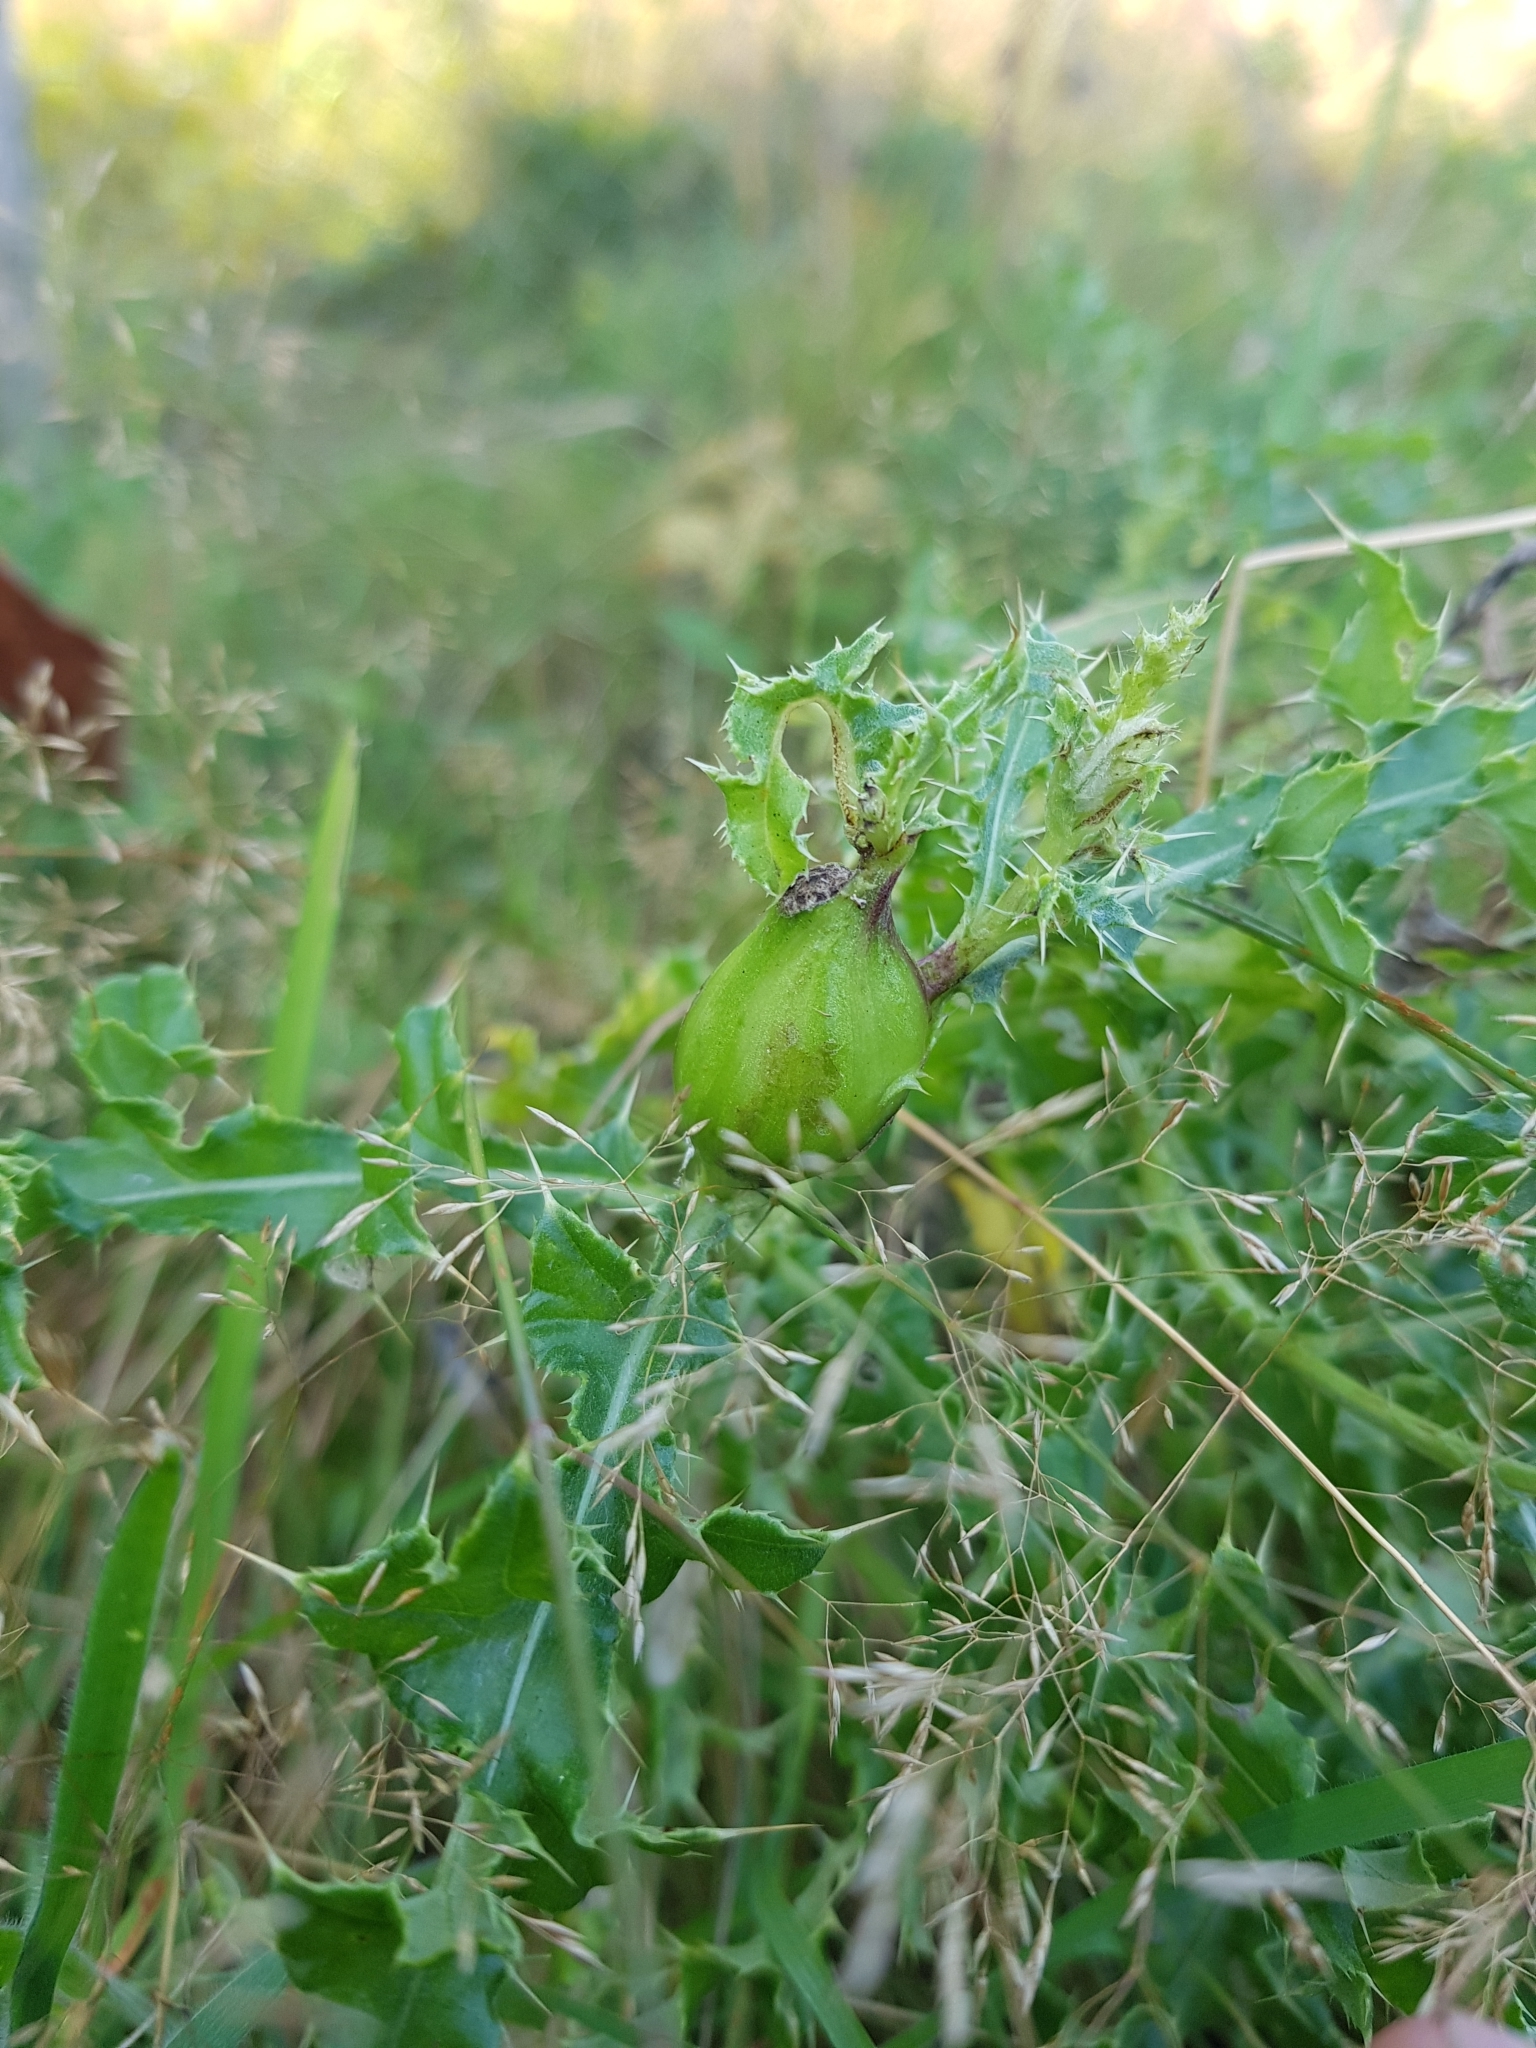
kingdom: Animalia
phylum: Arthropoda
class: Insecta
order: Diptera
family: Tephritidae
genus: Urophora
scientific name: Urophora cardui
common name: Fruit fly
